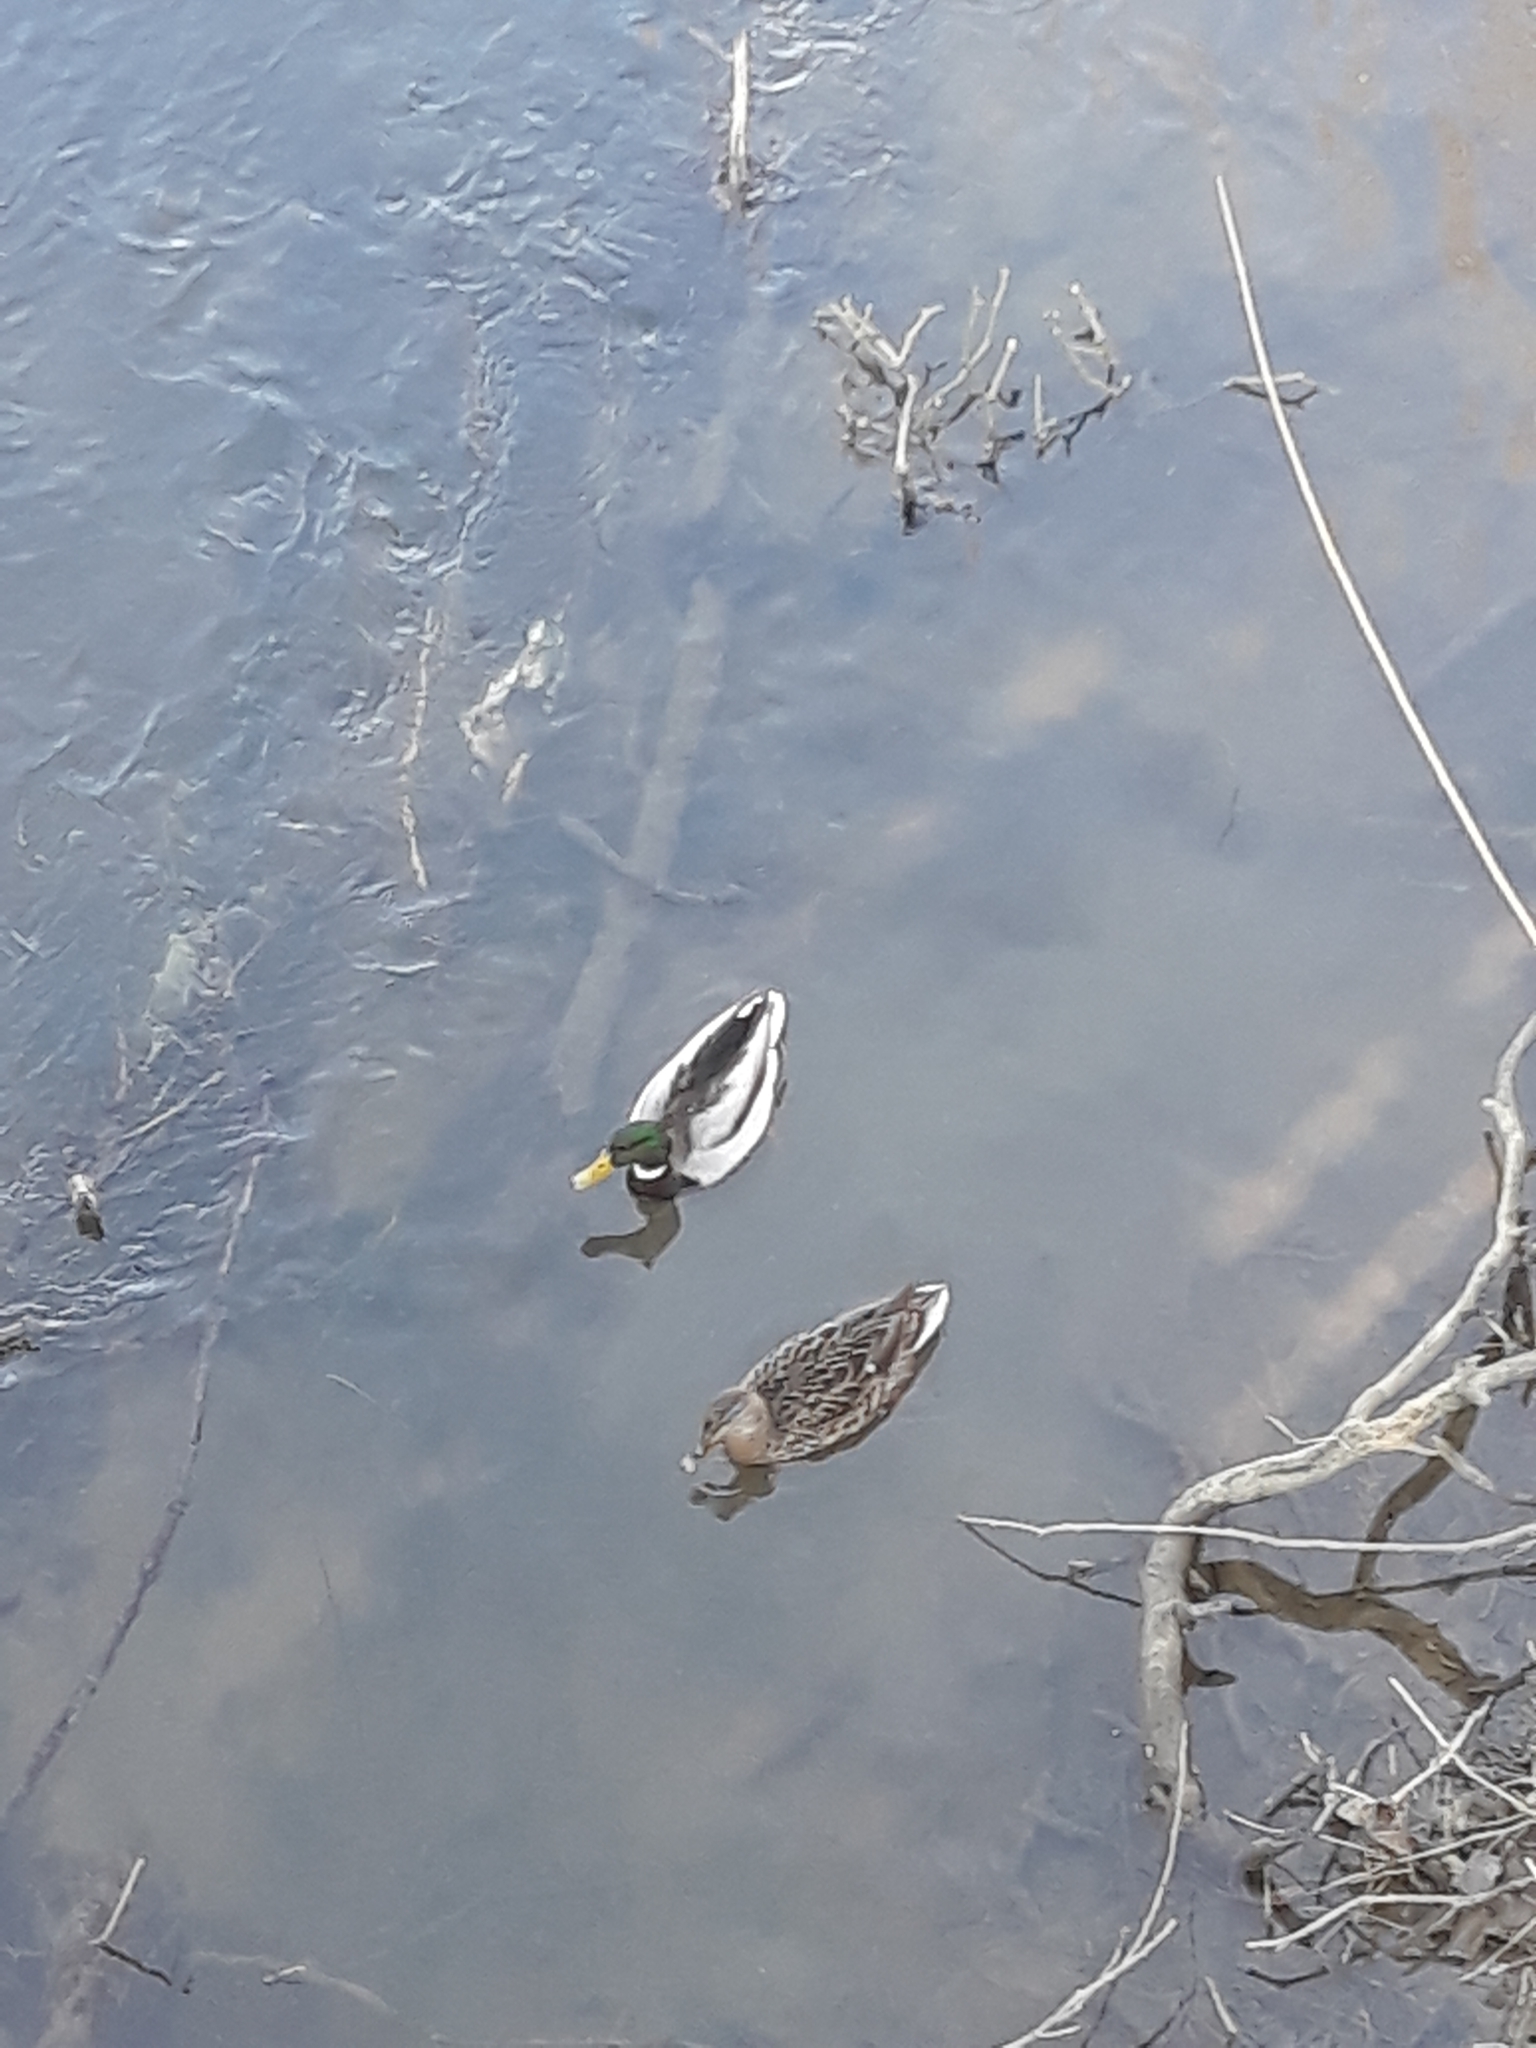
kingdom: Animalia
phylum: Chordata
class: Aves
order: Anseriformes
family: Anatidae
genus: Anas
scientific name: Anas platyrhynchos
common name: Mallard
